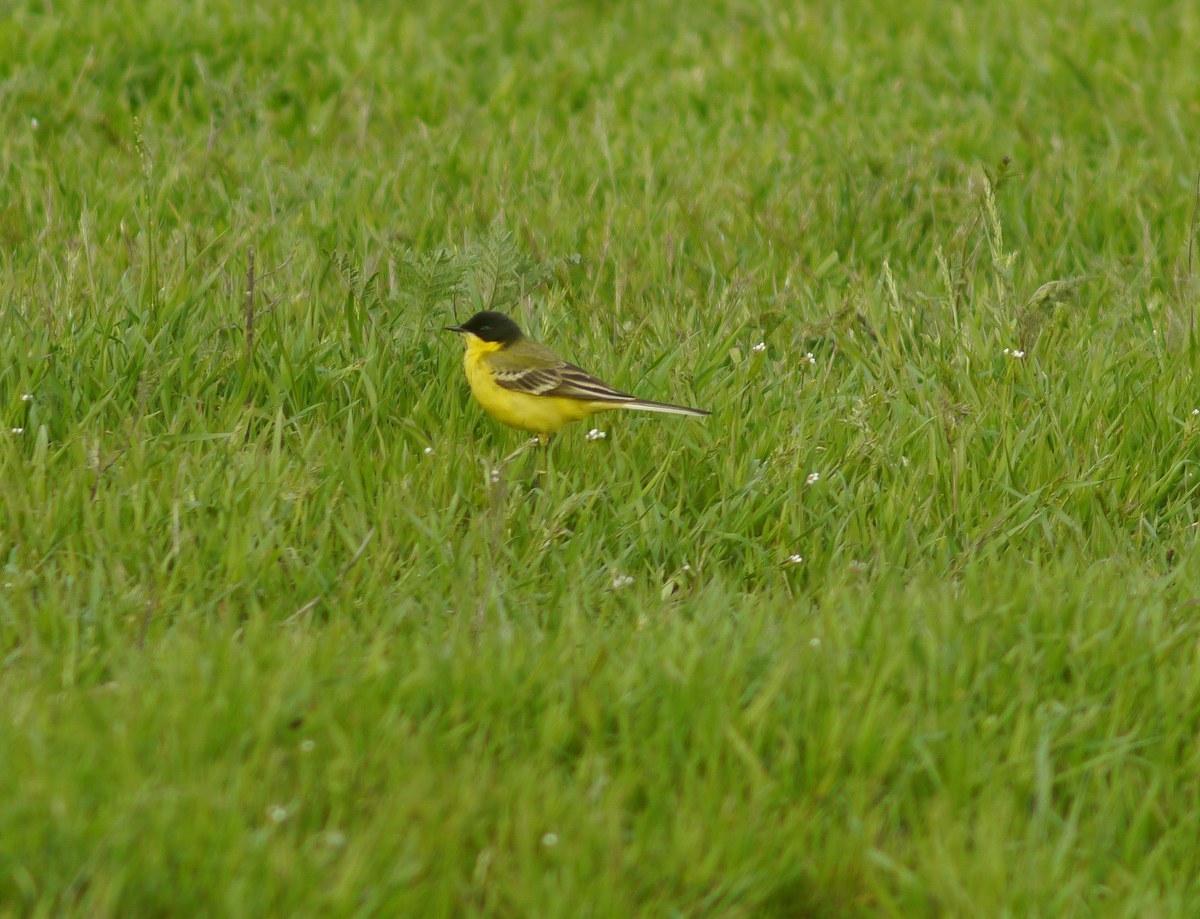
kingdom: Animalia
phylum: Chordata
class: Aves
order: Passeriformes
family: Motacillidae
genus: Motacilla
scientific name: Motacilla flava
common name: Western yellow wagtail
